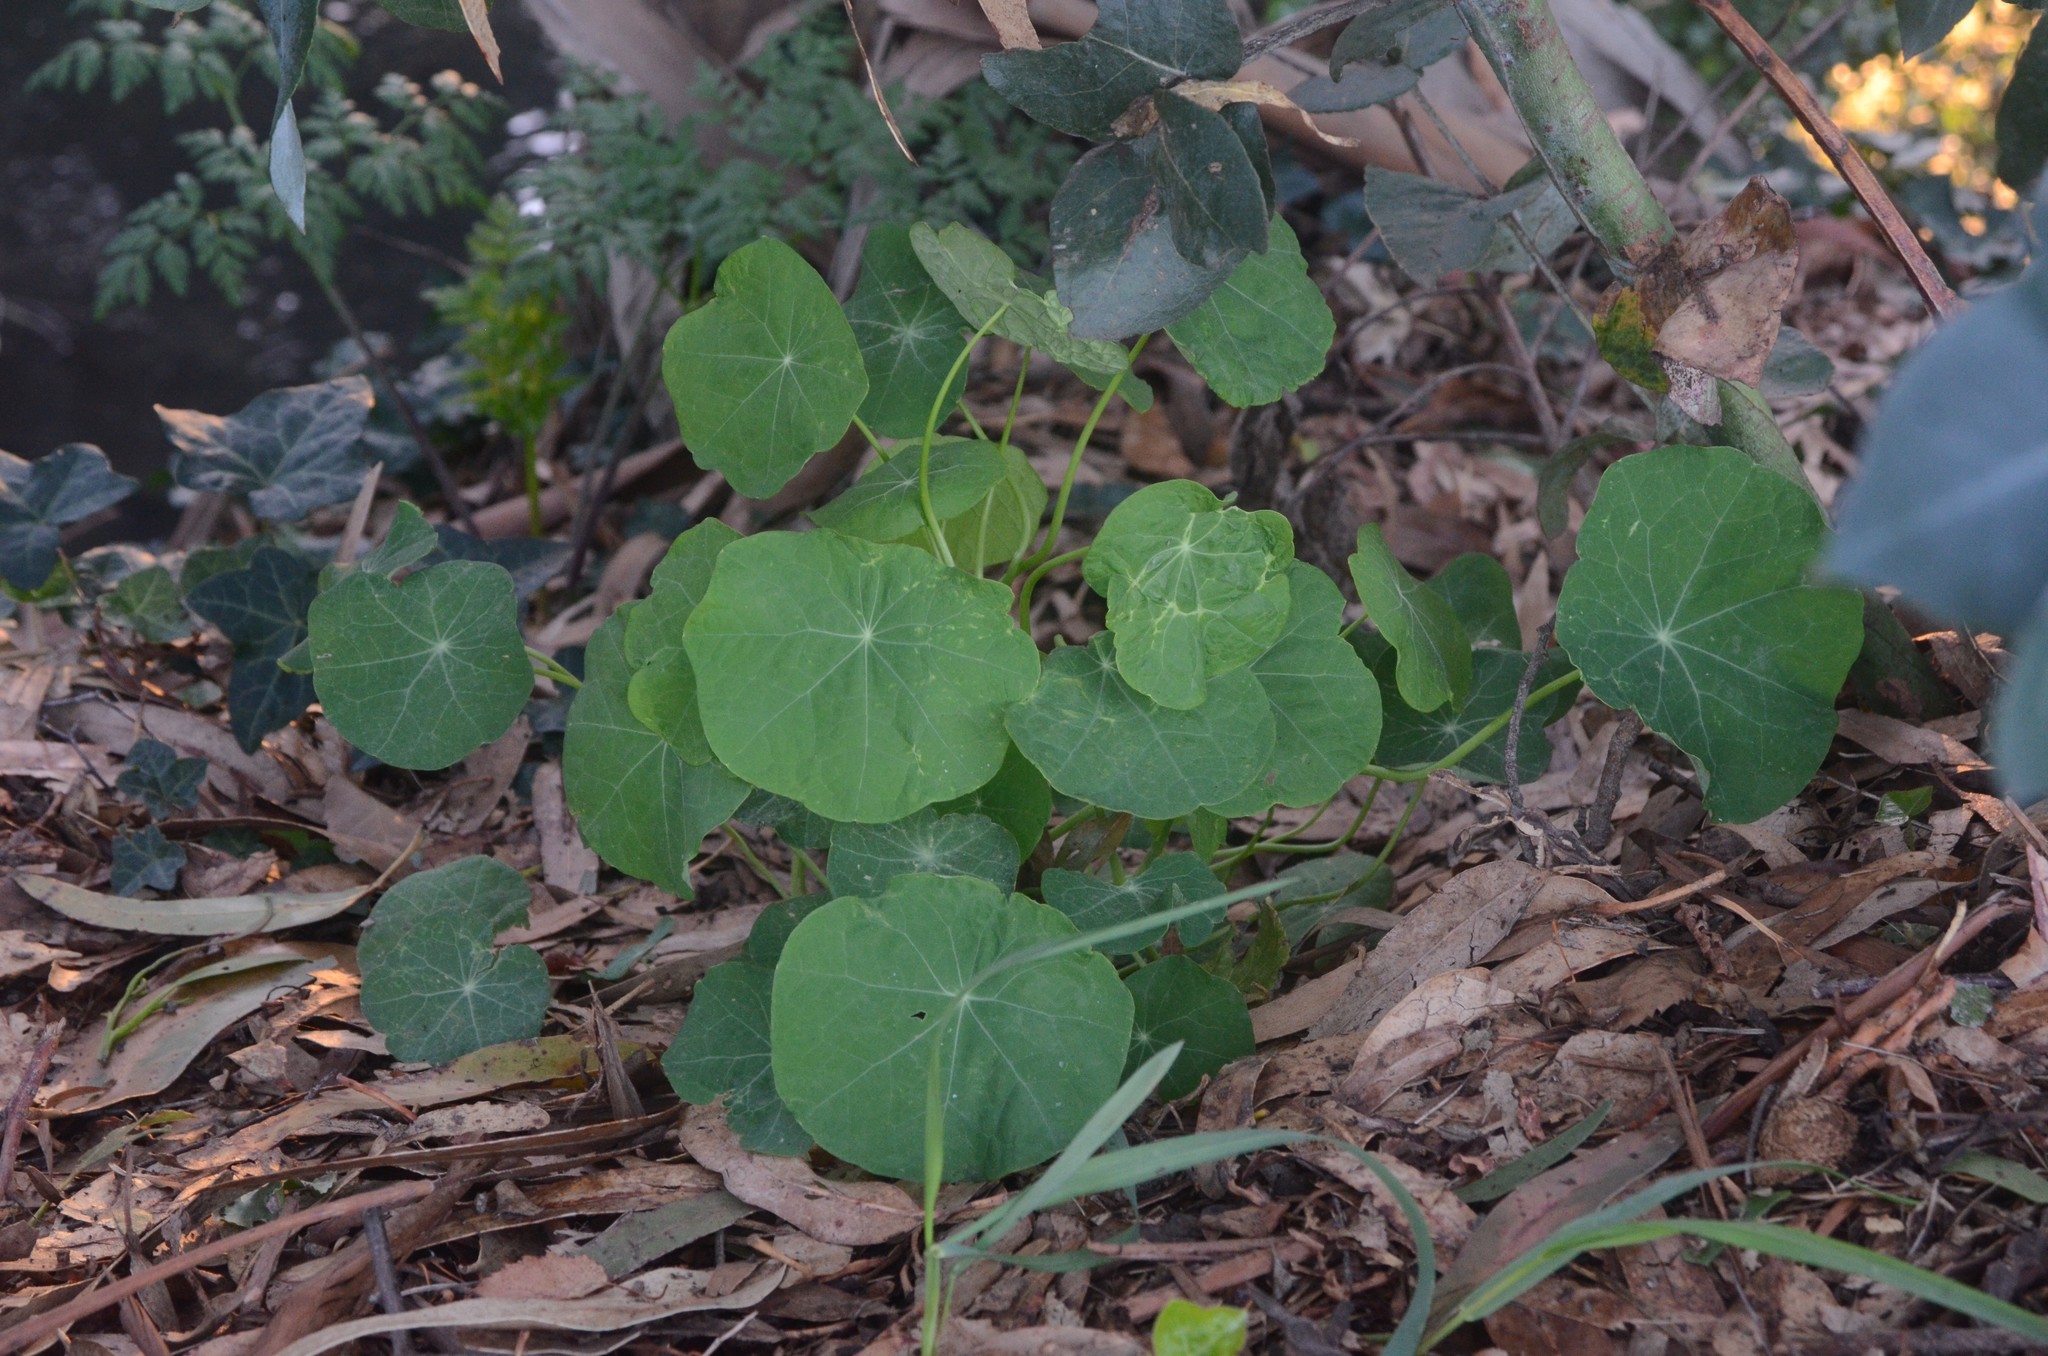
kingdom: Plantae
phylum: Tracheophyta
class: Magnoliopsida
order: Brassicales
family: Tropaeolaceae
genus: Tropaeolum
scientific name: Tropaeolum majus
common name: Nasturtium
